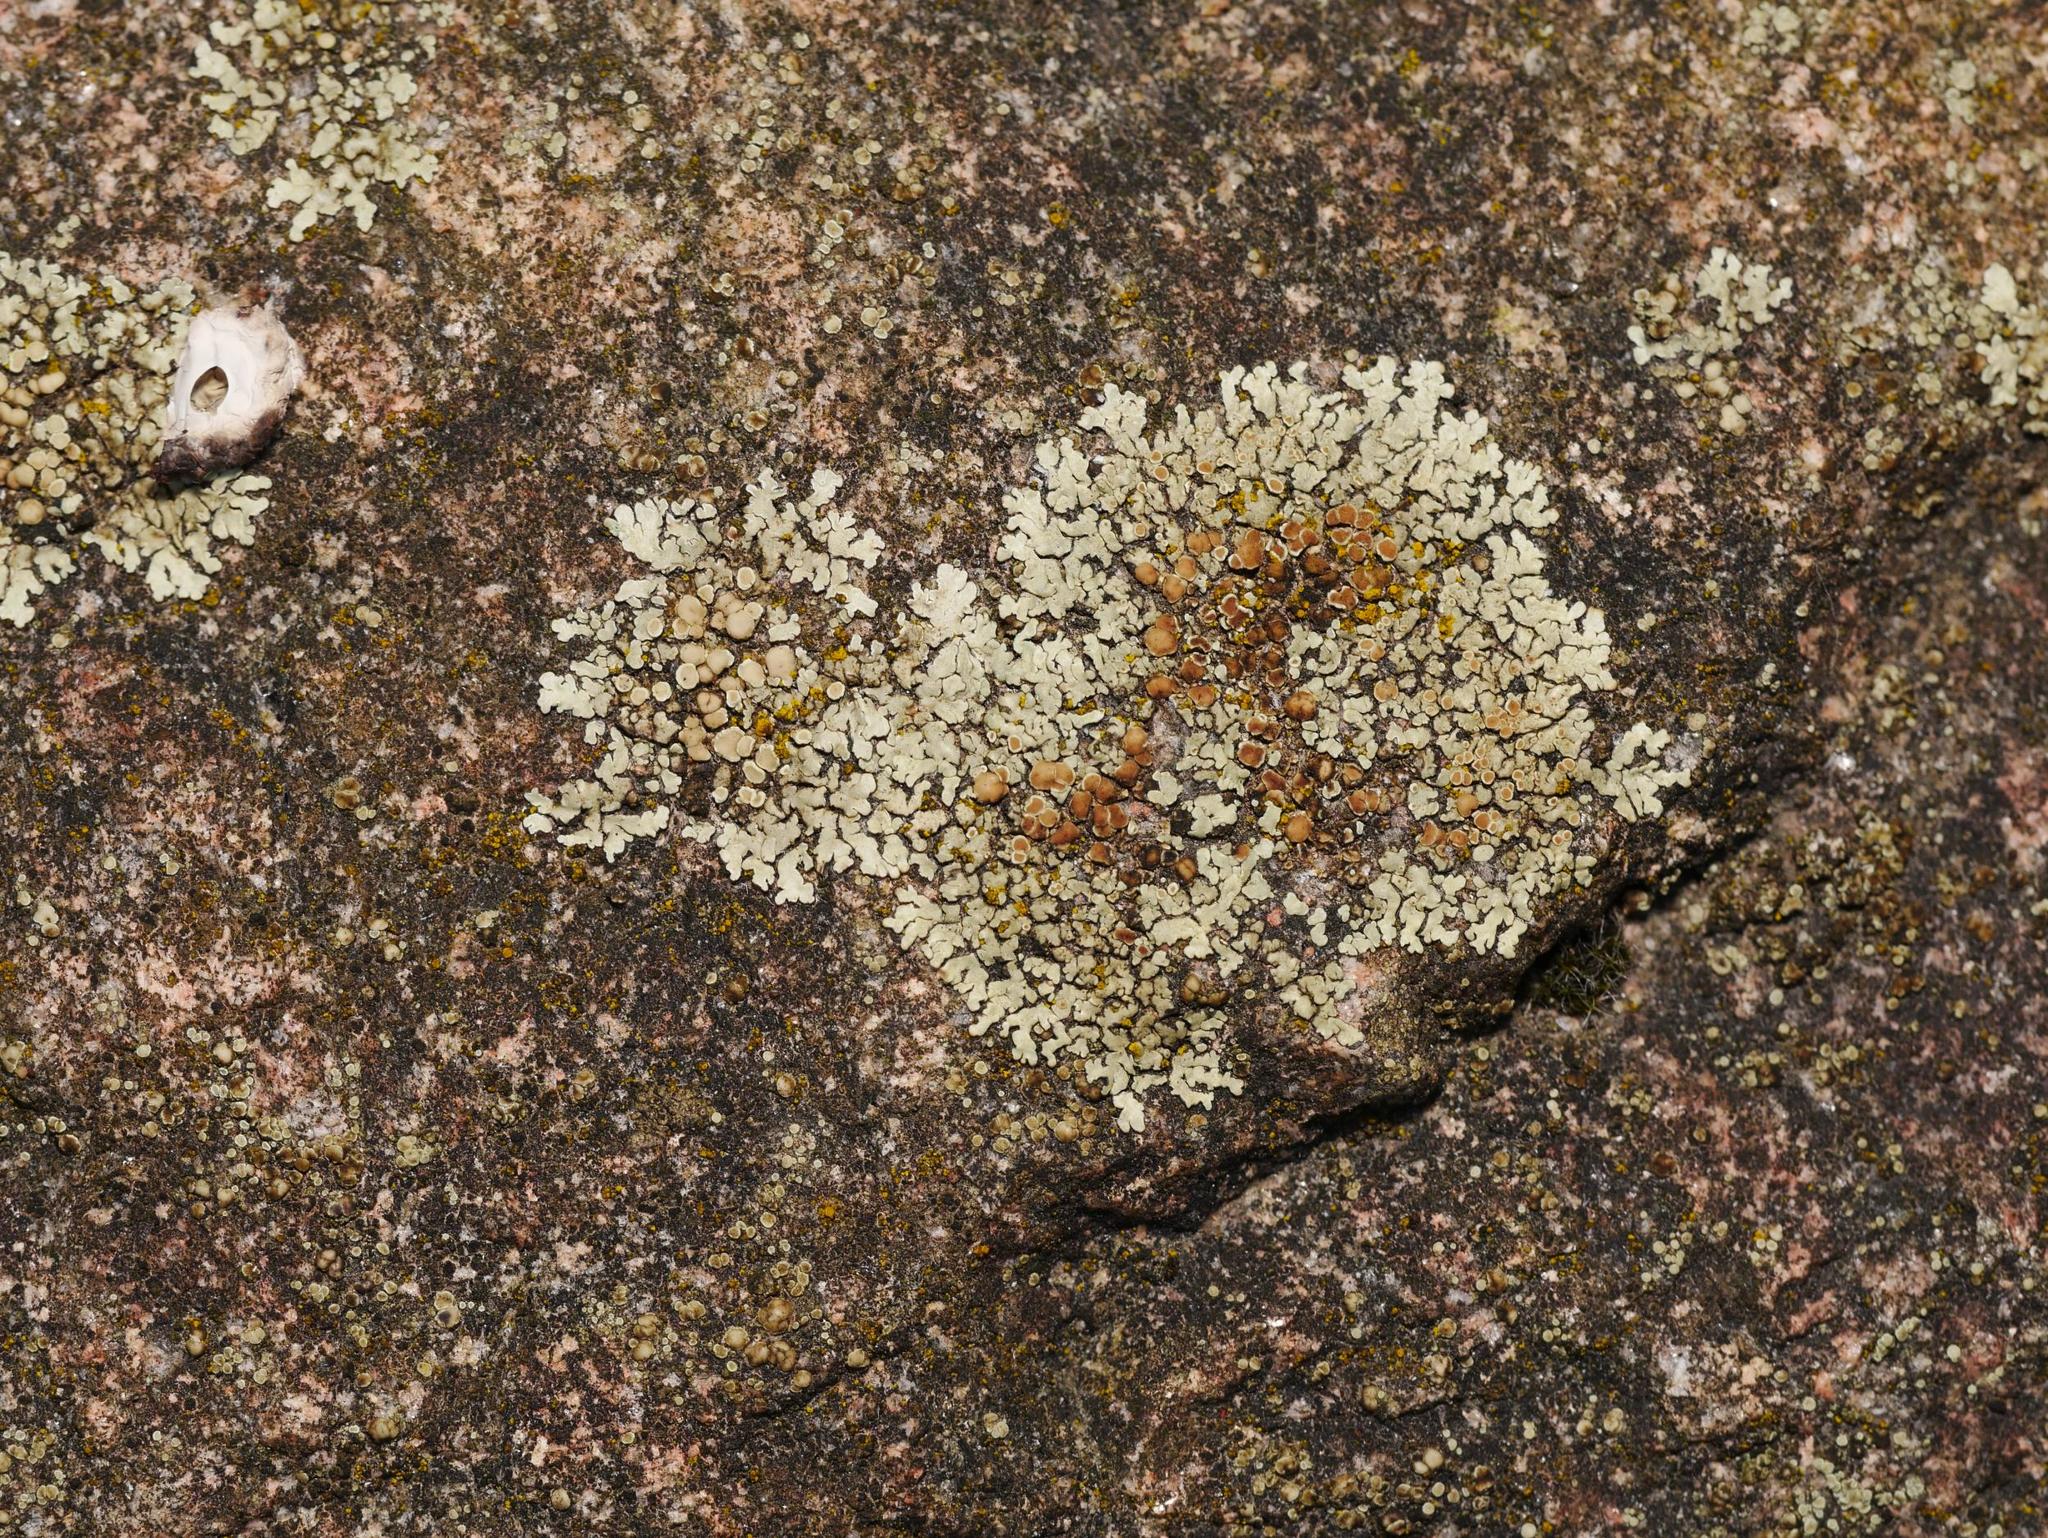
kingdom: Fungi
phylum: Ascomycota
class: Lecanoromycetes
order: Lecanorales
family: Lecanoraceae
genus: Protoparmeliopsis
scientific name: Protoparmeliopsis muralis
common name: Stonewall rim lichen
